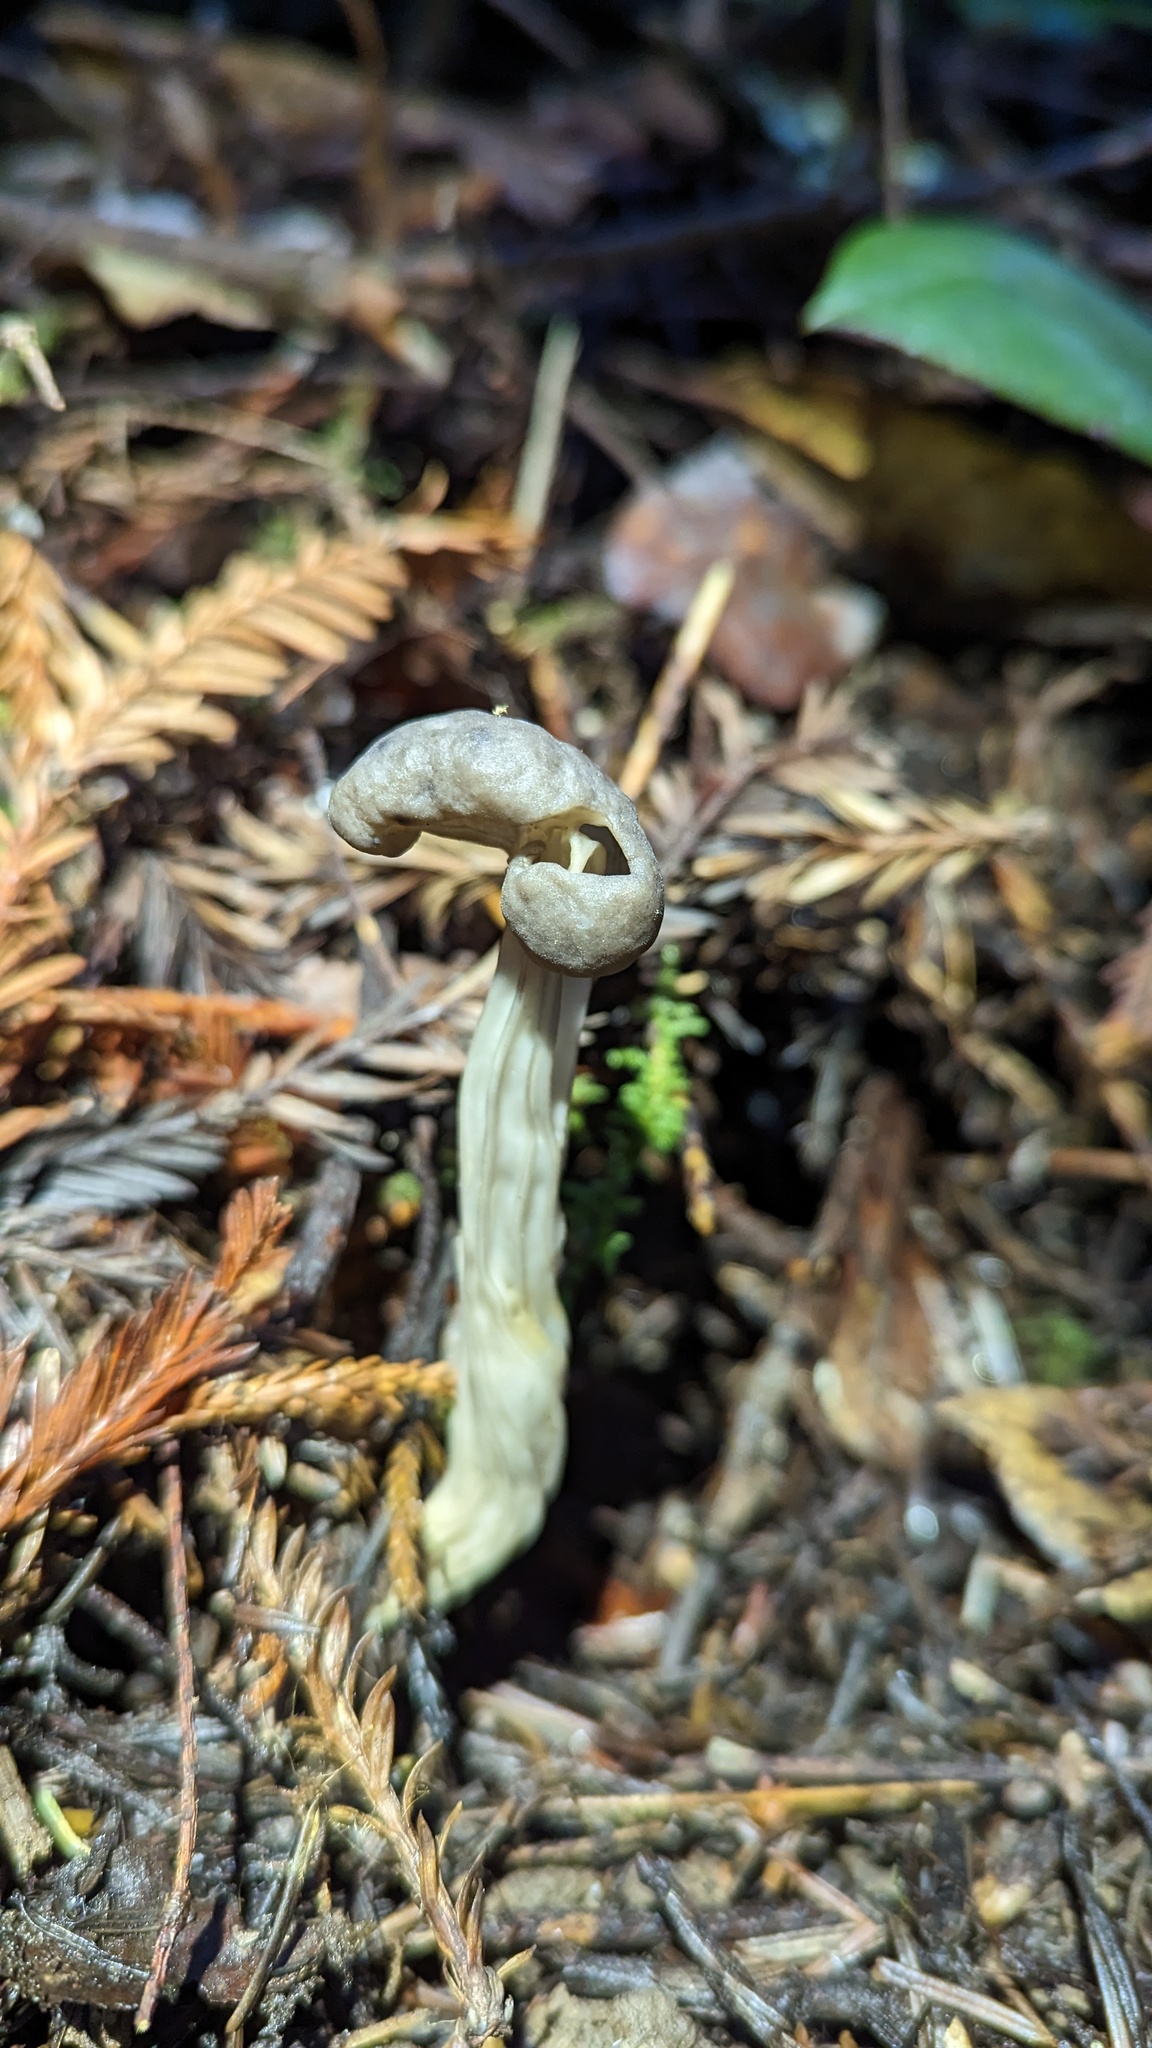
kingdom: Fungi
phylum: Ascomycota
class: Pezizomycetes
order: Pezizales
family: Helvellaceae
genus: Helvella
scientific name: Helvella maculata
